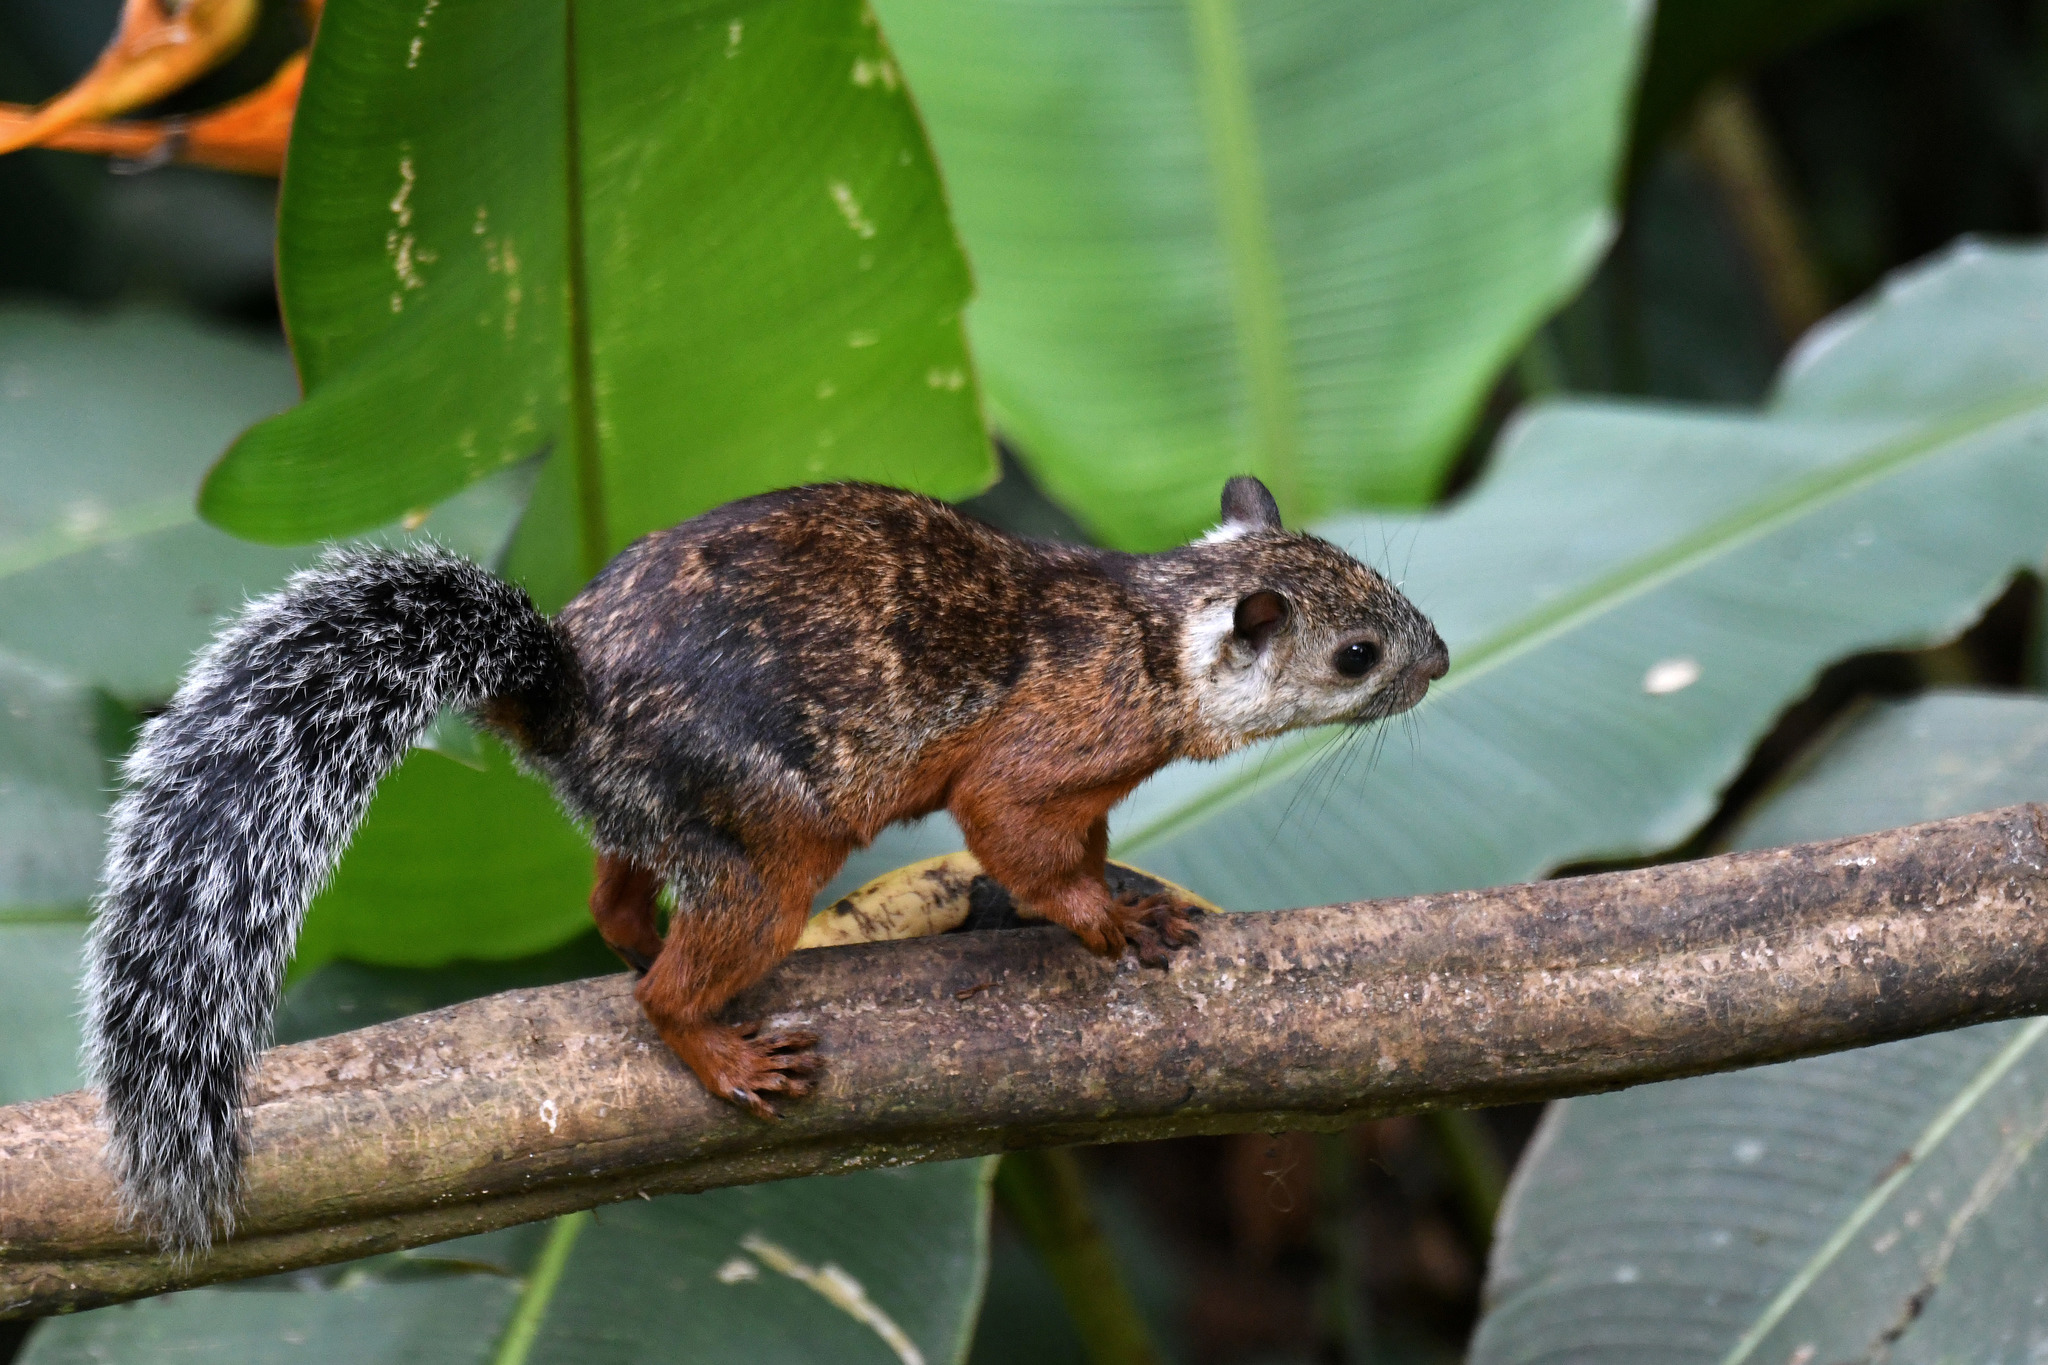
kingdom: Animalia
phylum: Chordata
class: Mammalia
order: Rodentia
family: Sciuridae
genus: Sciurus
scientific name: Sciurus variegatoides
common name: Variegated squirrel
